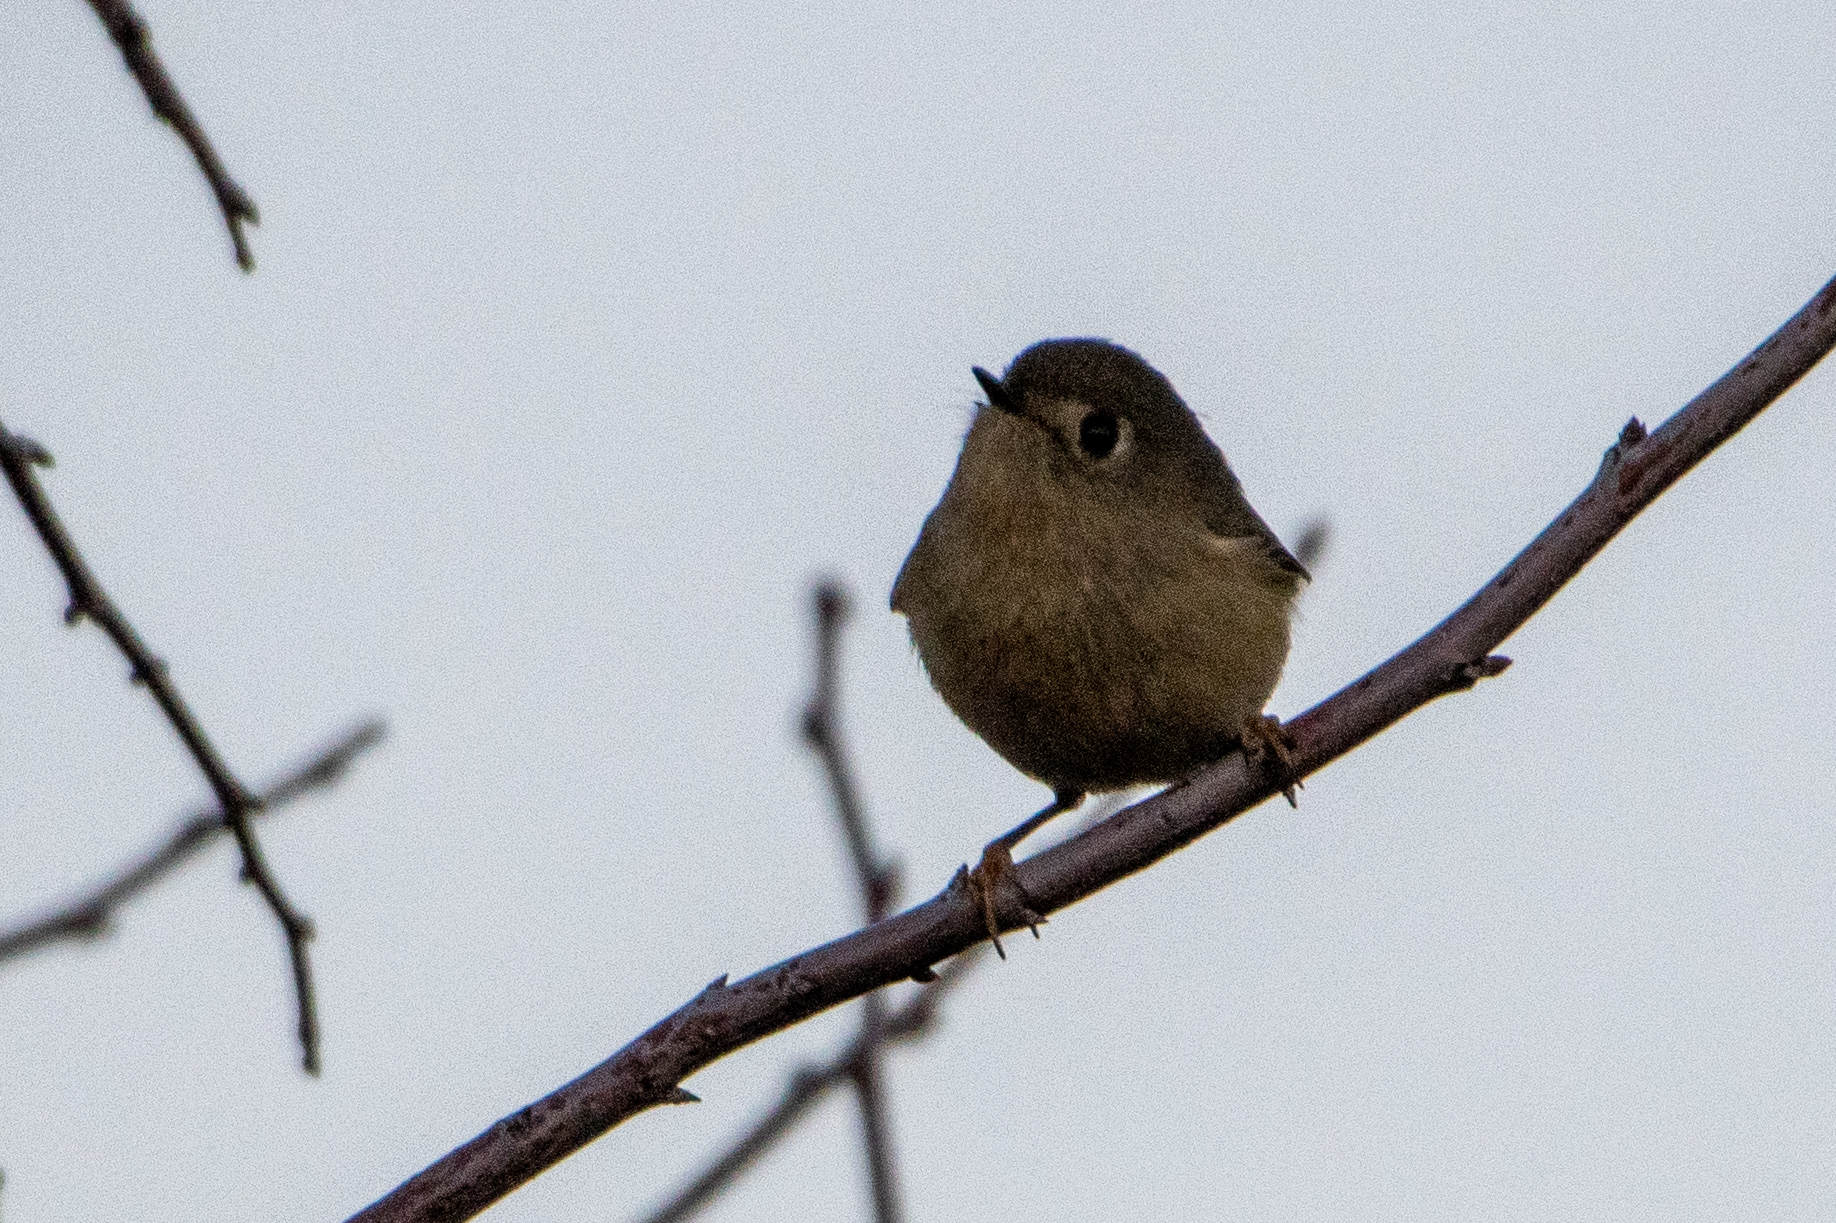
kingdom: Animalia
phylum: Chordata
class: Aves
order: Passeriformes
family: Regulidae
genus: Regulus
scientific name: Regulus calendula
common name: Ruby-crowned kinglet
